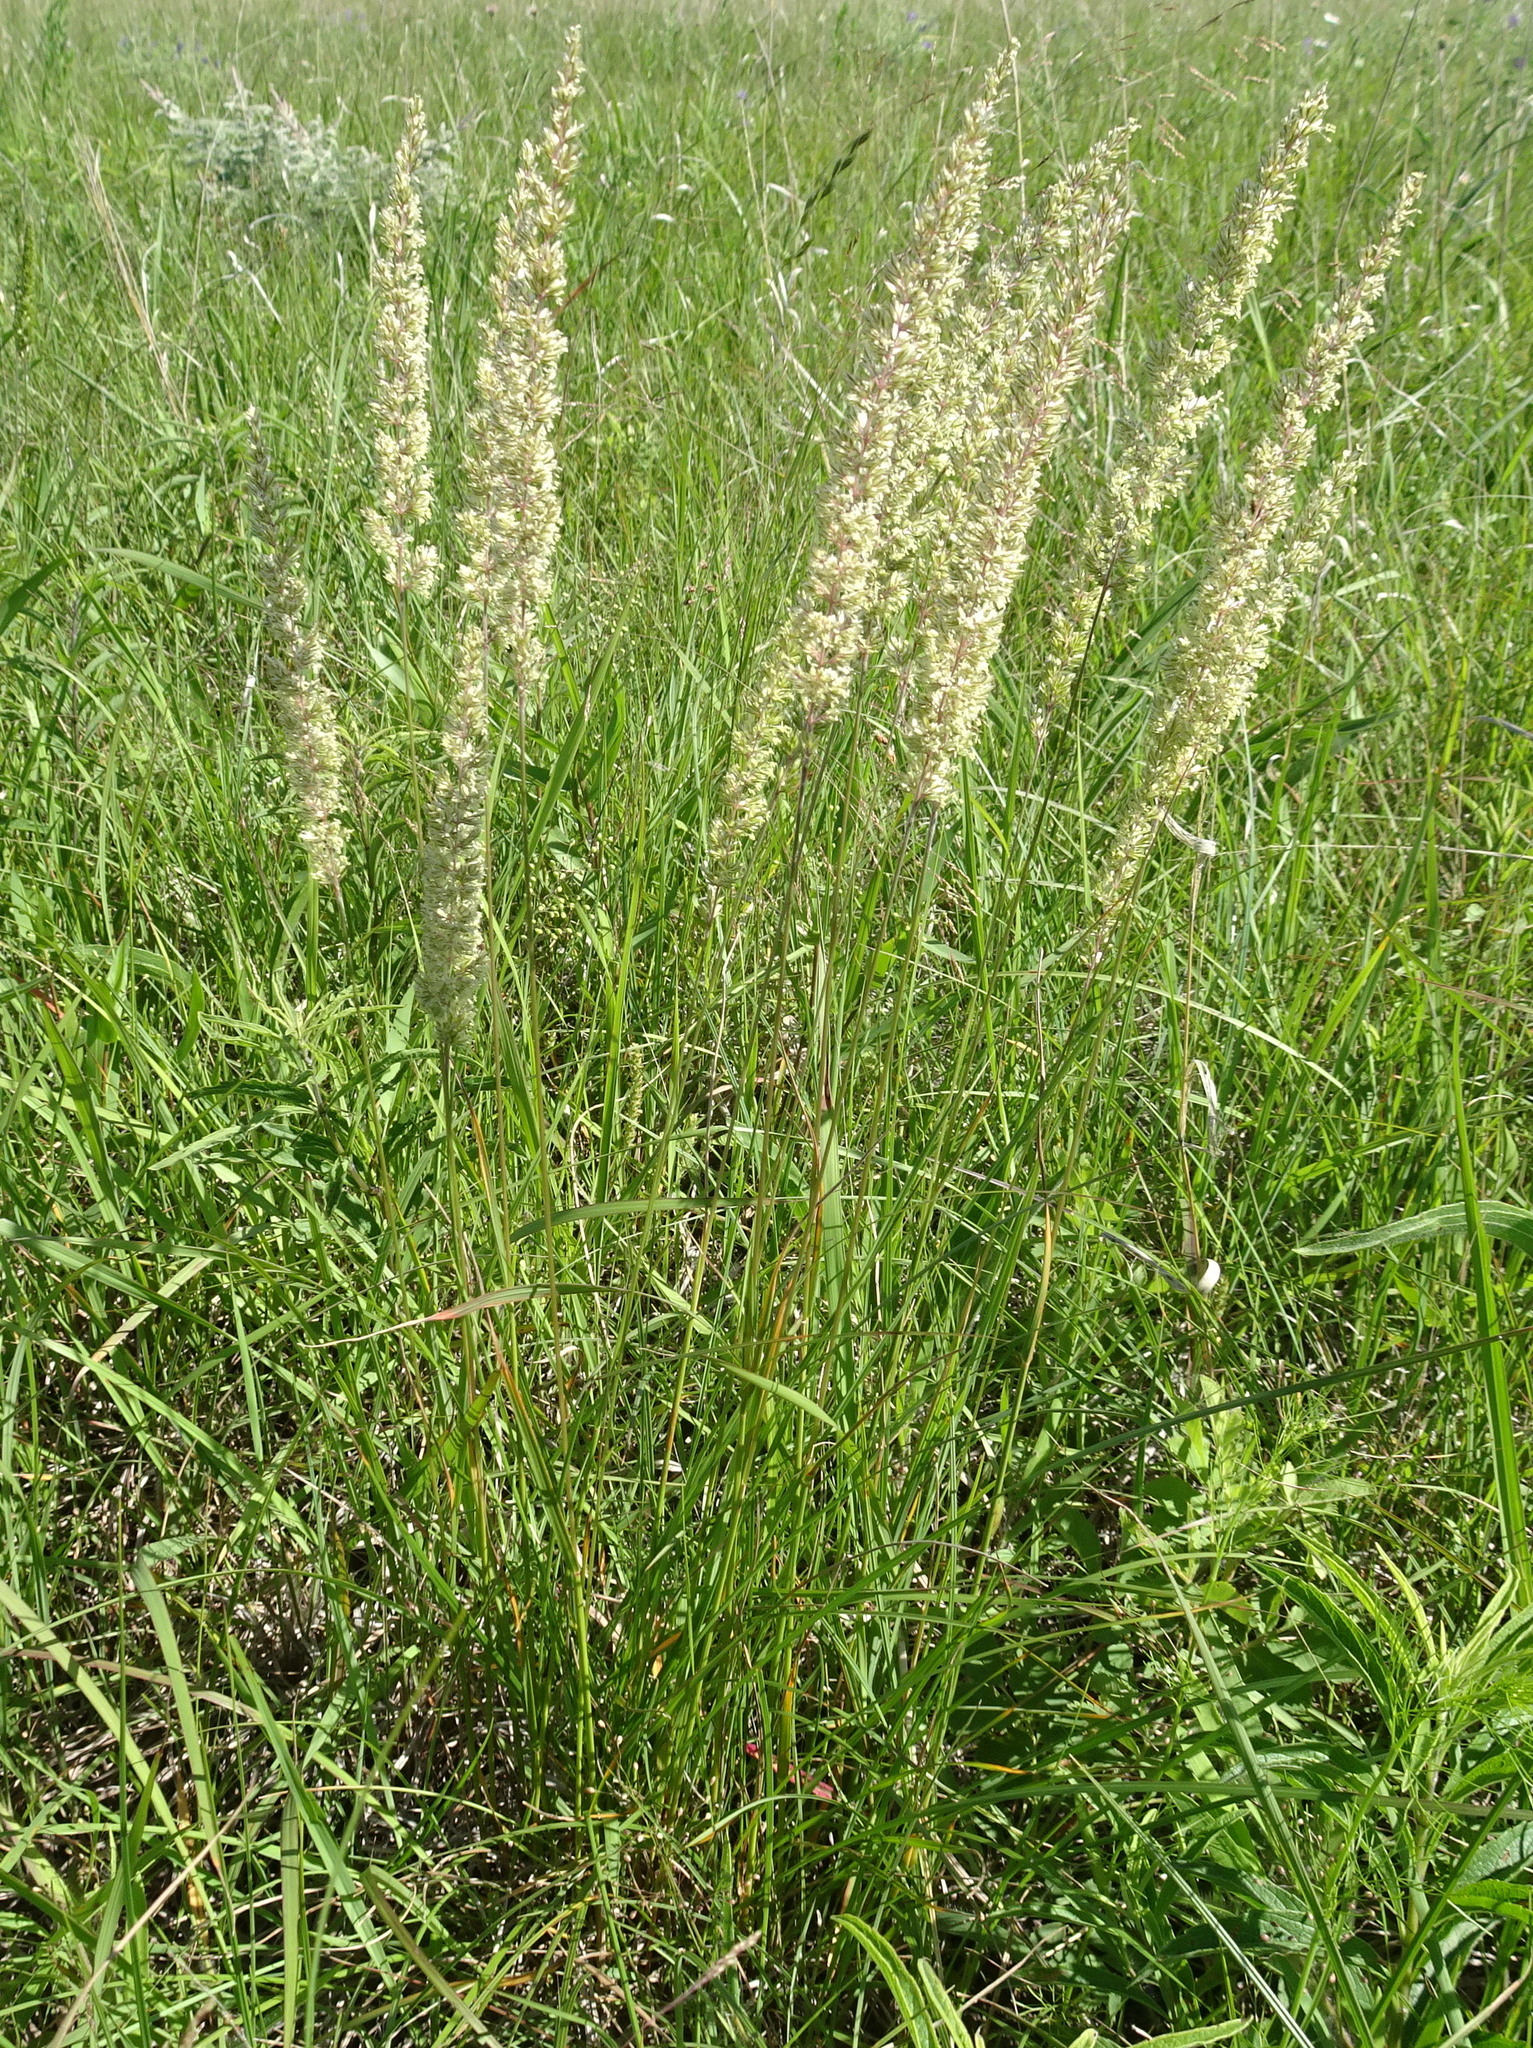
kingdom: Plantae
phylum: Tracheophyta
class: Liliopsida
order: Poales
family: Poaceae
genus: Koeleria
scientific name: Koeleria macrantha
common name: Crested hair-grass
